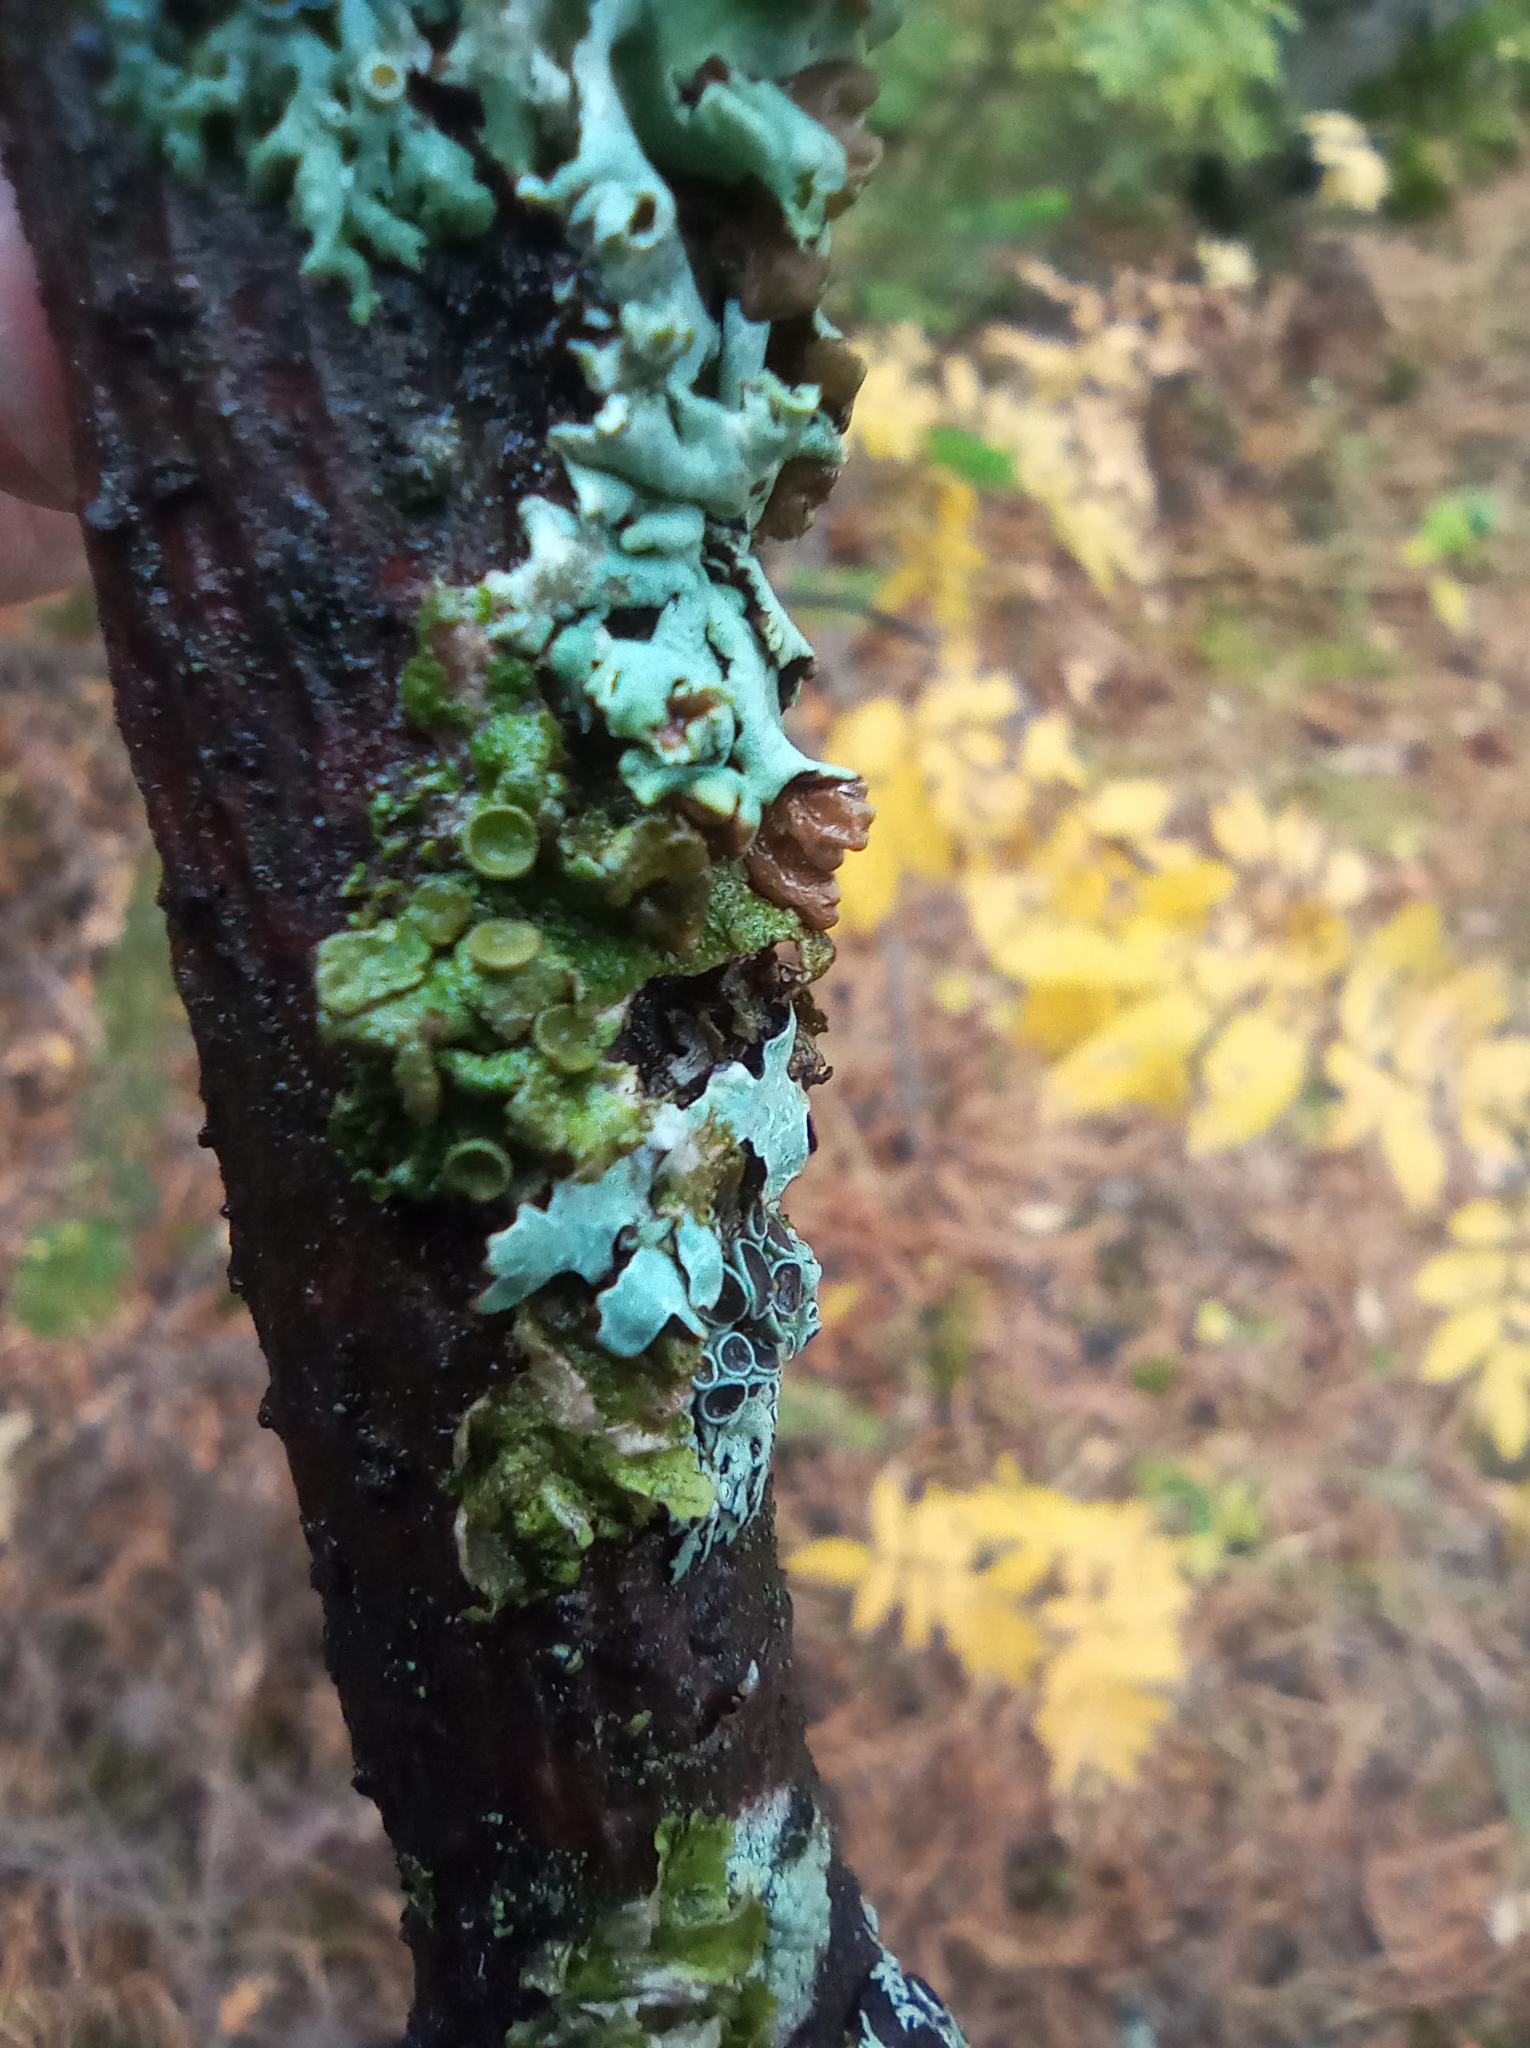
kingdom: Fungi
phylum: Ascomycota
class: Lecanoromycetes
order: Lecanorales
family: Parmeliaceae
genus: Melanohalea
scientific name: Melanohalea septentrionalis
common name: Northern camouflage lichen
